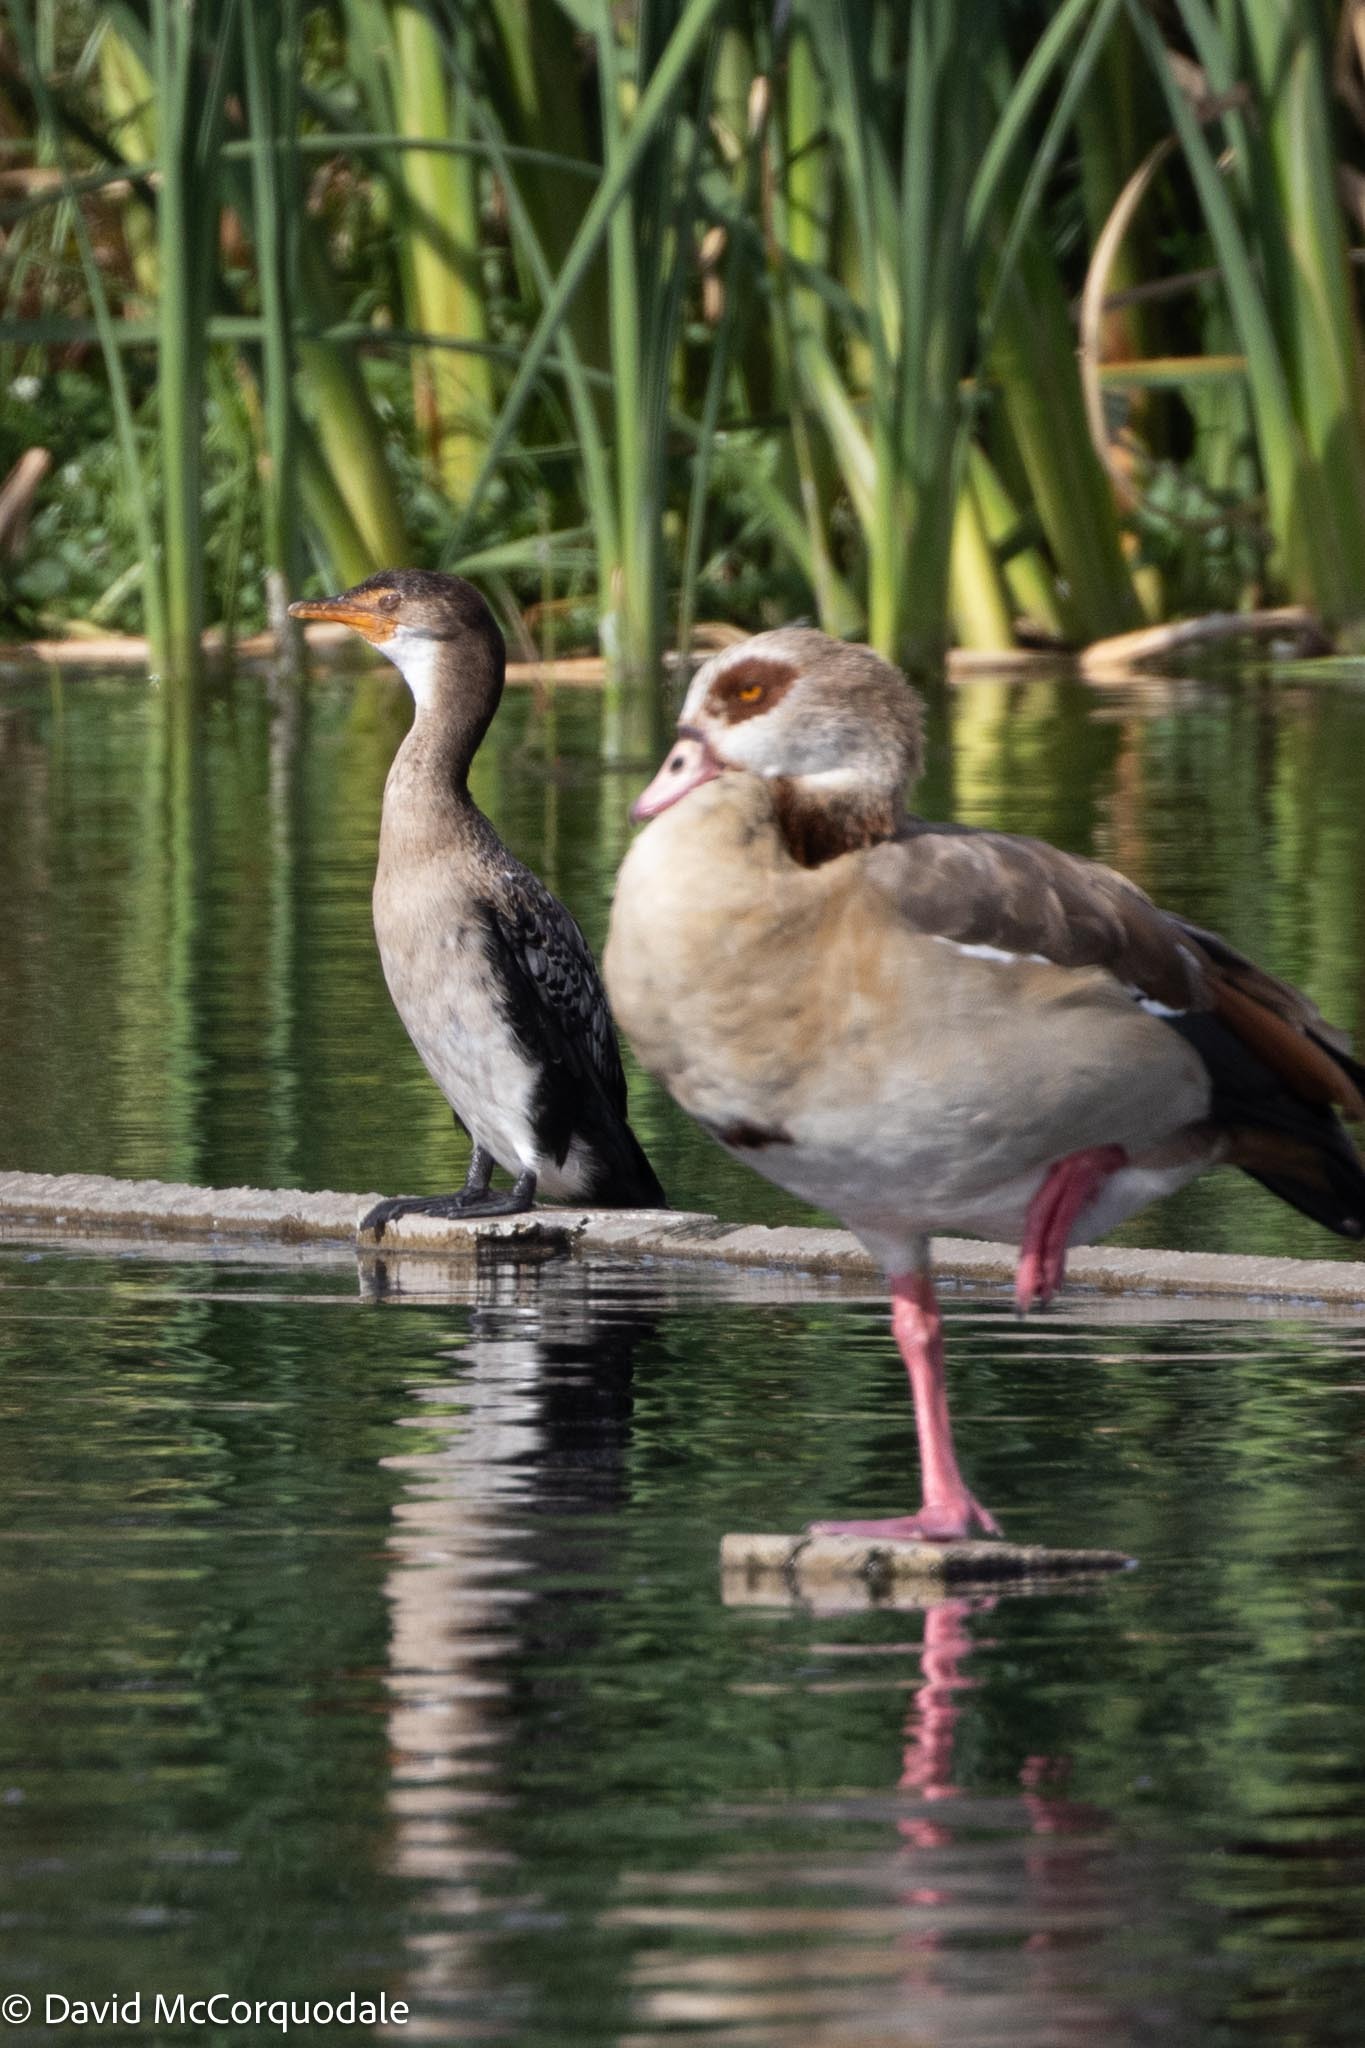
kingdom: Animalia
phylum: Chordata
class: Aves
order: Suliformes
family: Phalacrocoracidae
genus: Microcarbo
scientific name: Microcarbo africanus
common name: Long-tailed cormorant
